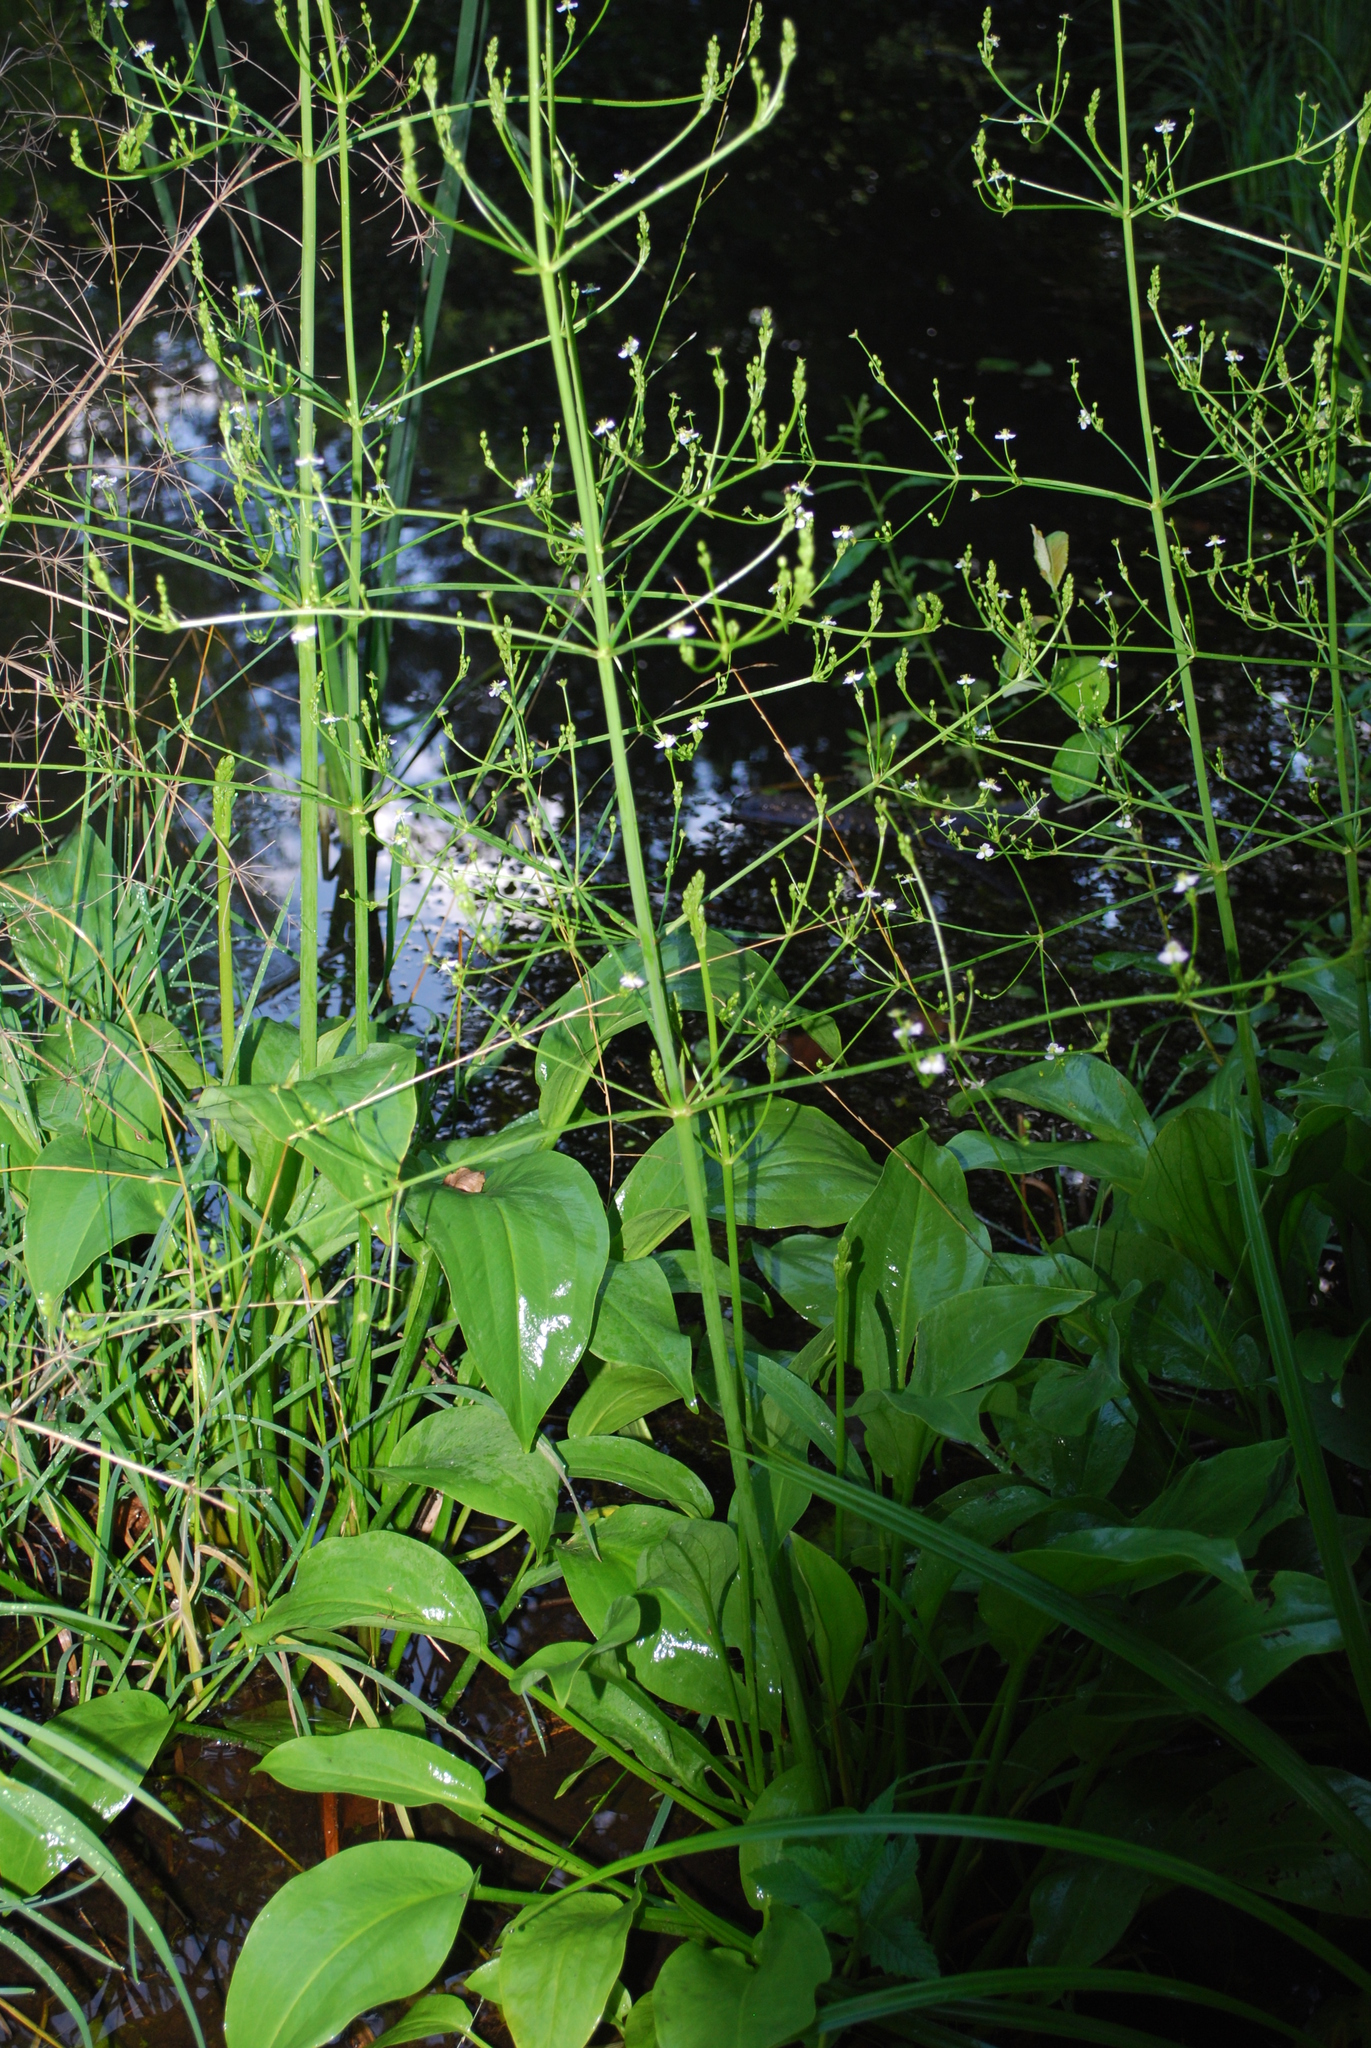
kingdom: Plantae
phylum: Tracheophyta
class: Liliopsida
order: Alismatales
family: Alismataceae
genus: Alisma
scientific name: Alisma plantago-aquatica
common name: Water-plantain
